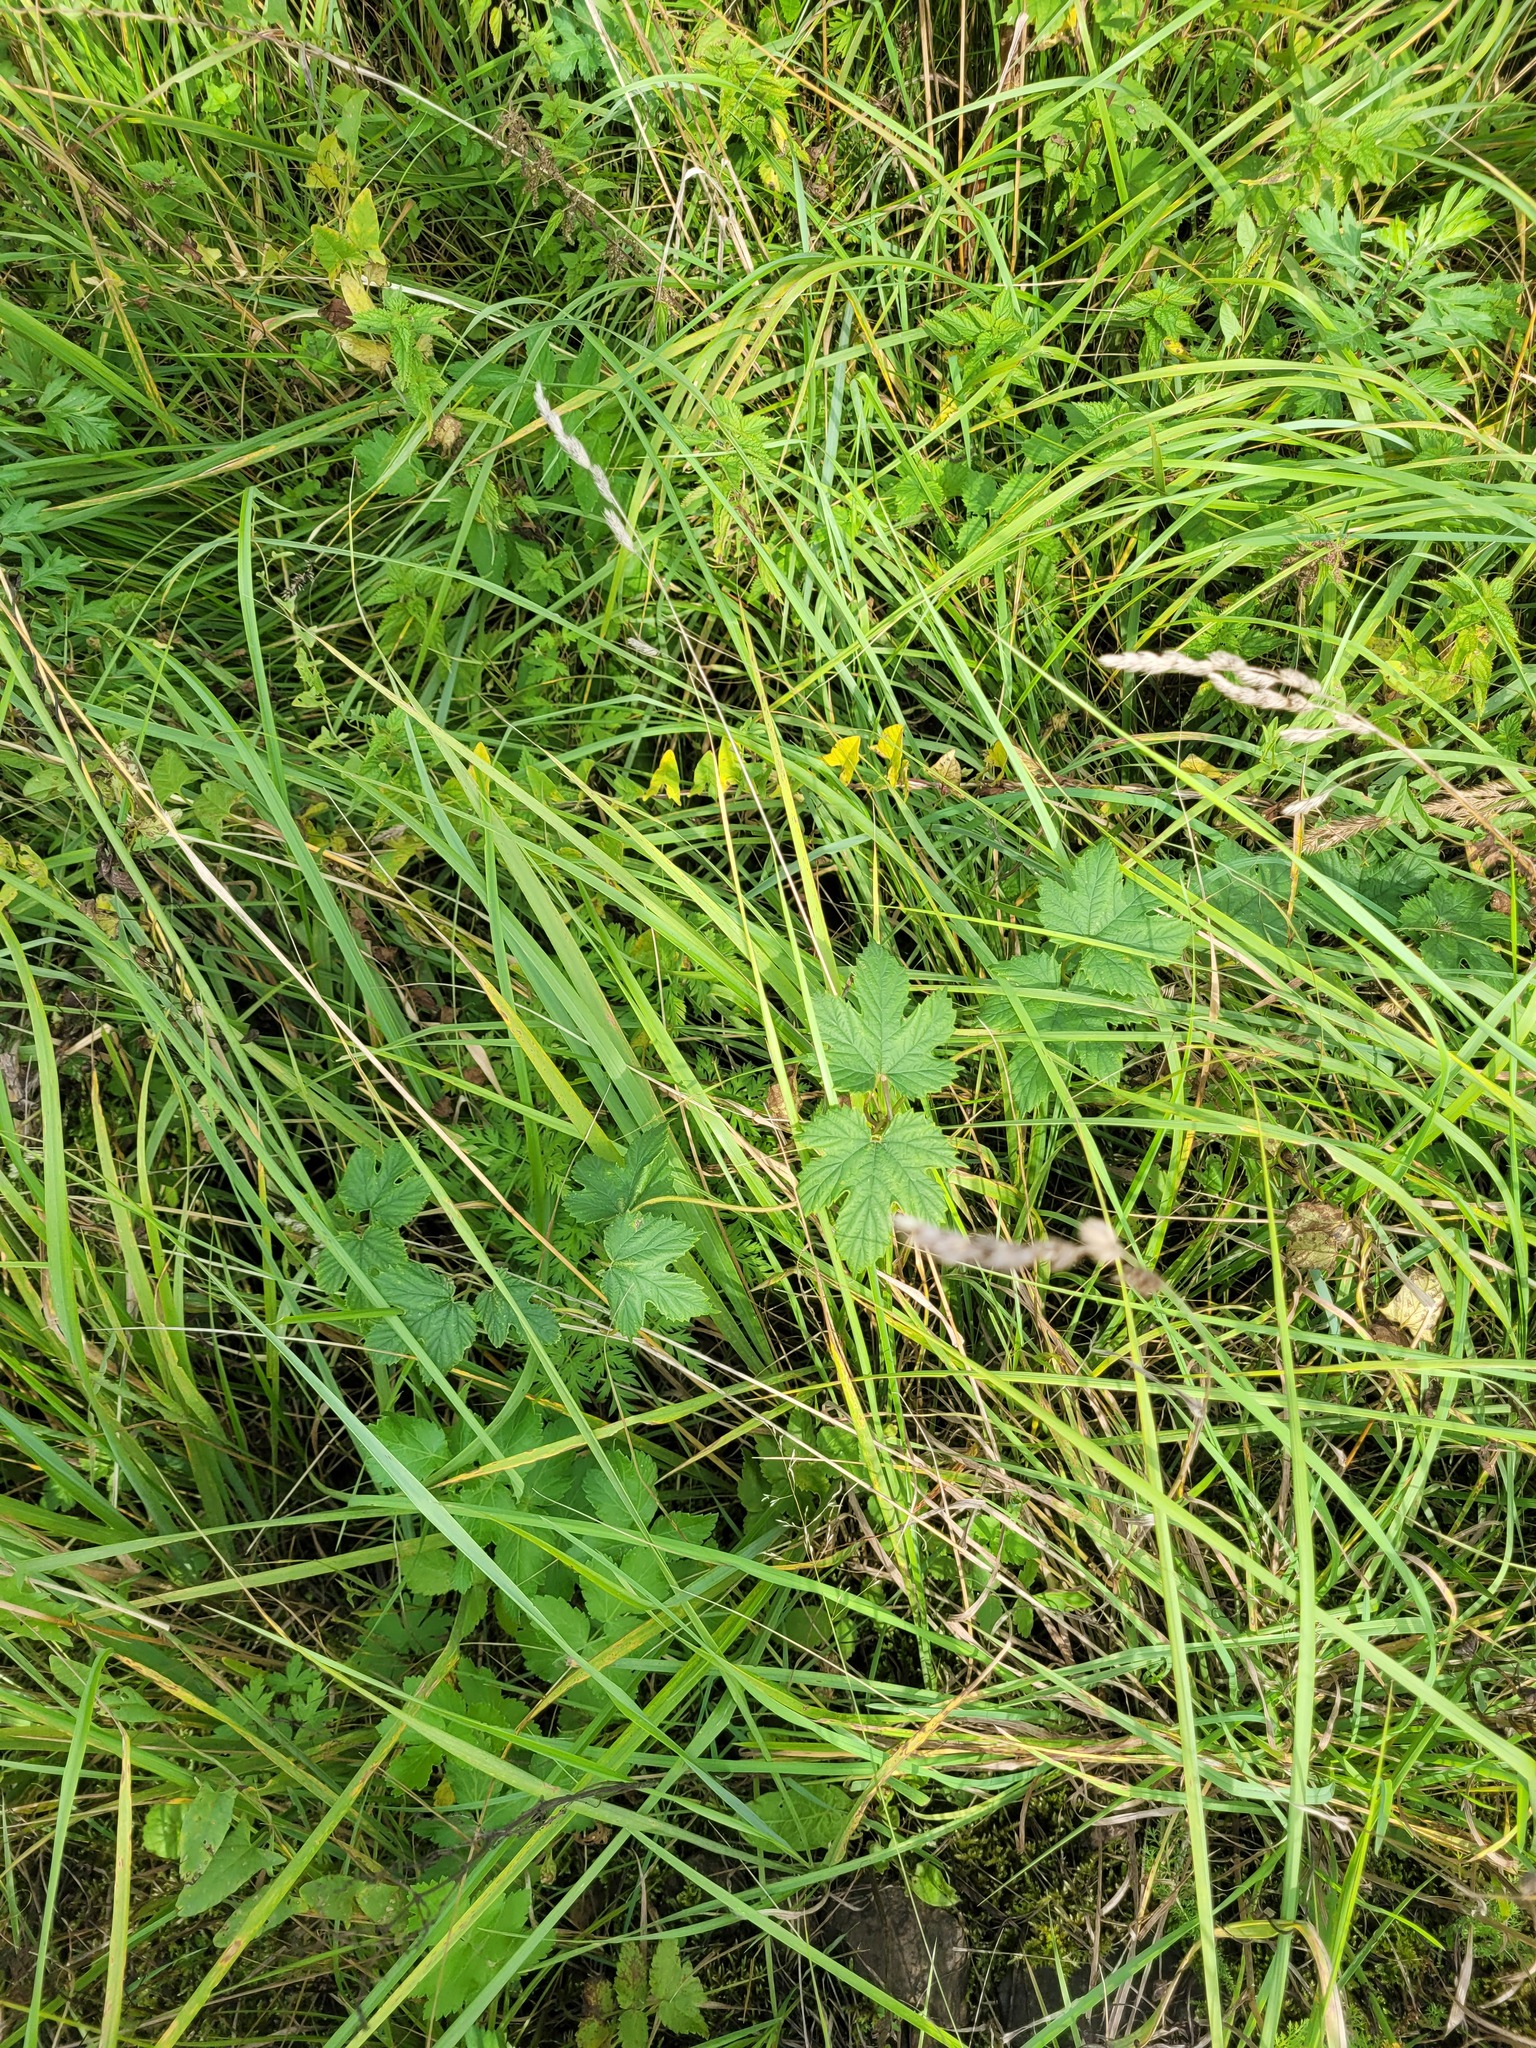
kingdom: Plantae
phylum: Tracheophyta
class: Magnoliopsida
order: Rosales
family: Cannabaceae
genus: Humulus
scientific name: Humulus lupulus
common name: Hop
